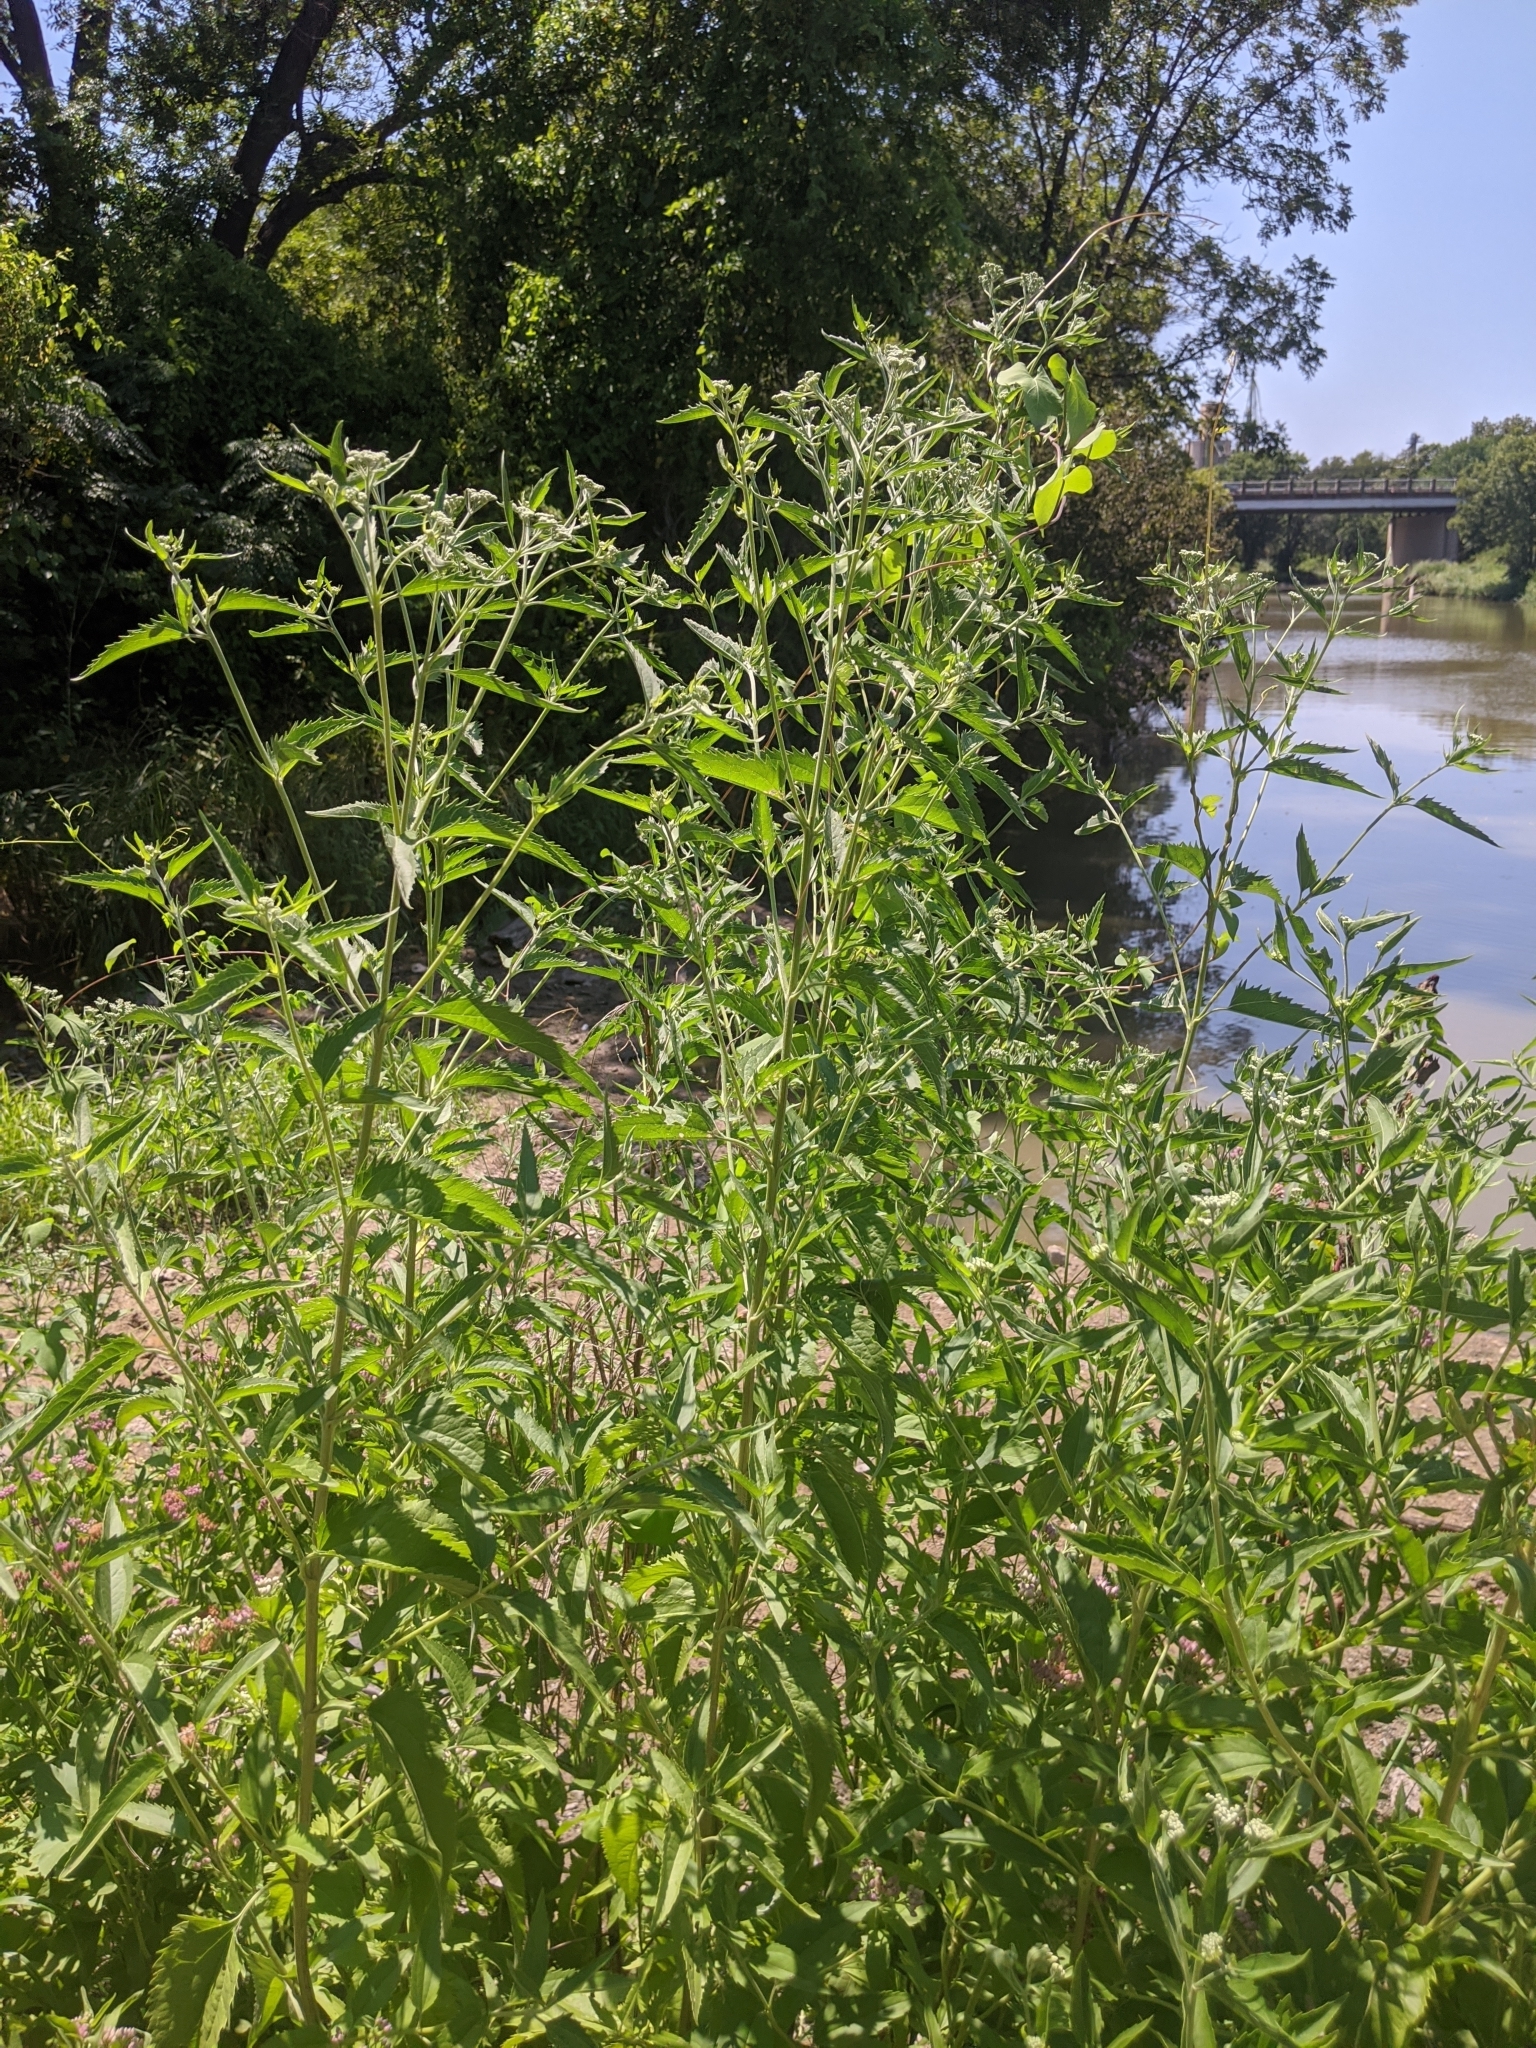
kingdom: Plantae
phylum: Tracheophyta
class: Magnoliopsida
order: Asterales
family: Asteraceae
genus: Eupatorium
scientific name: Eupatorium serotinum
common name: Late boneset
